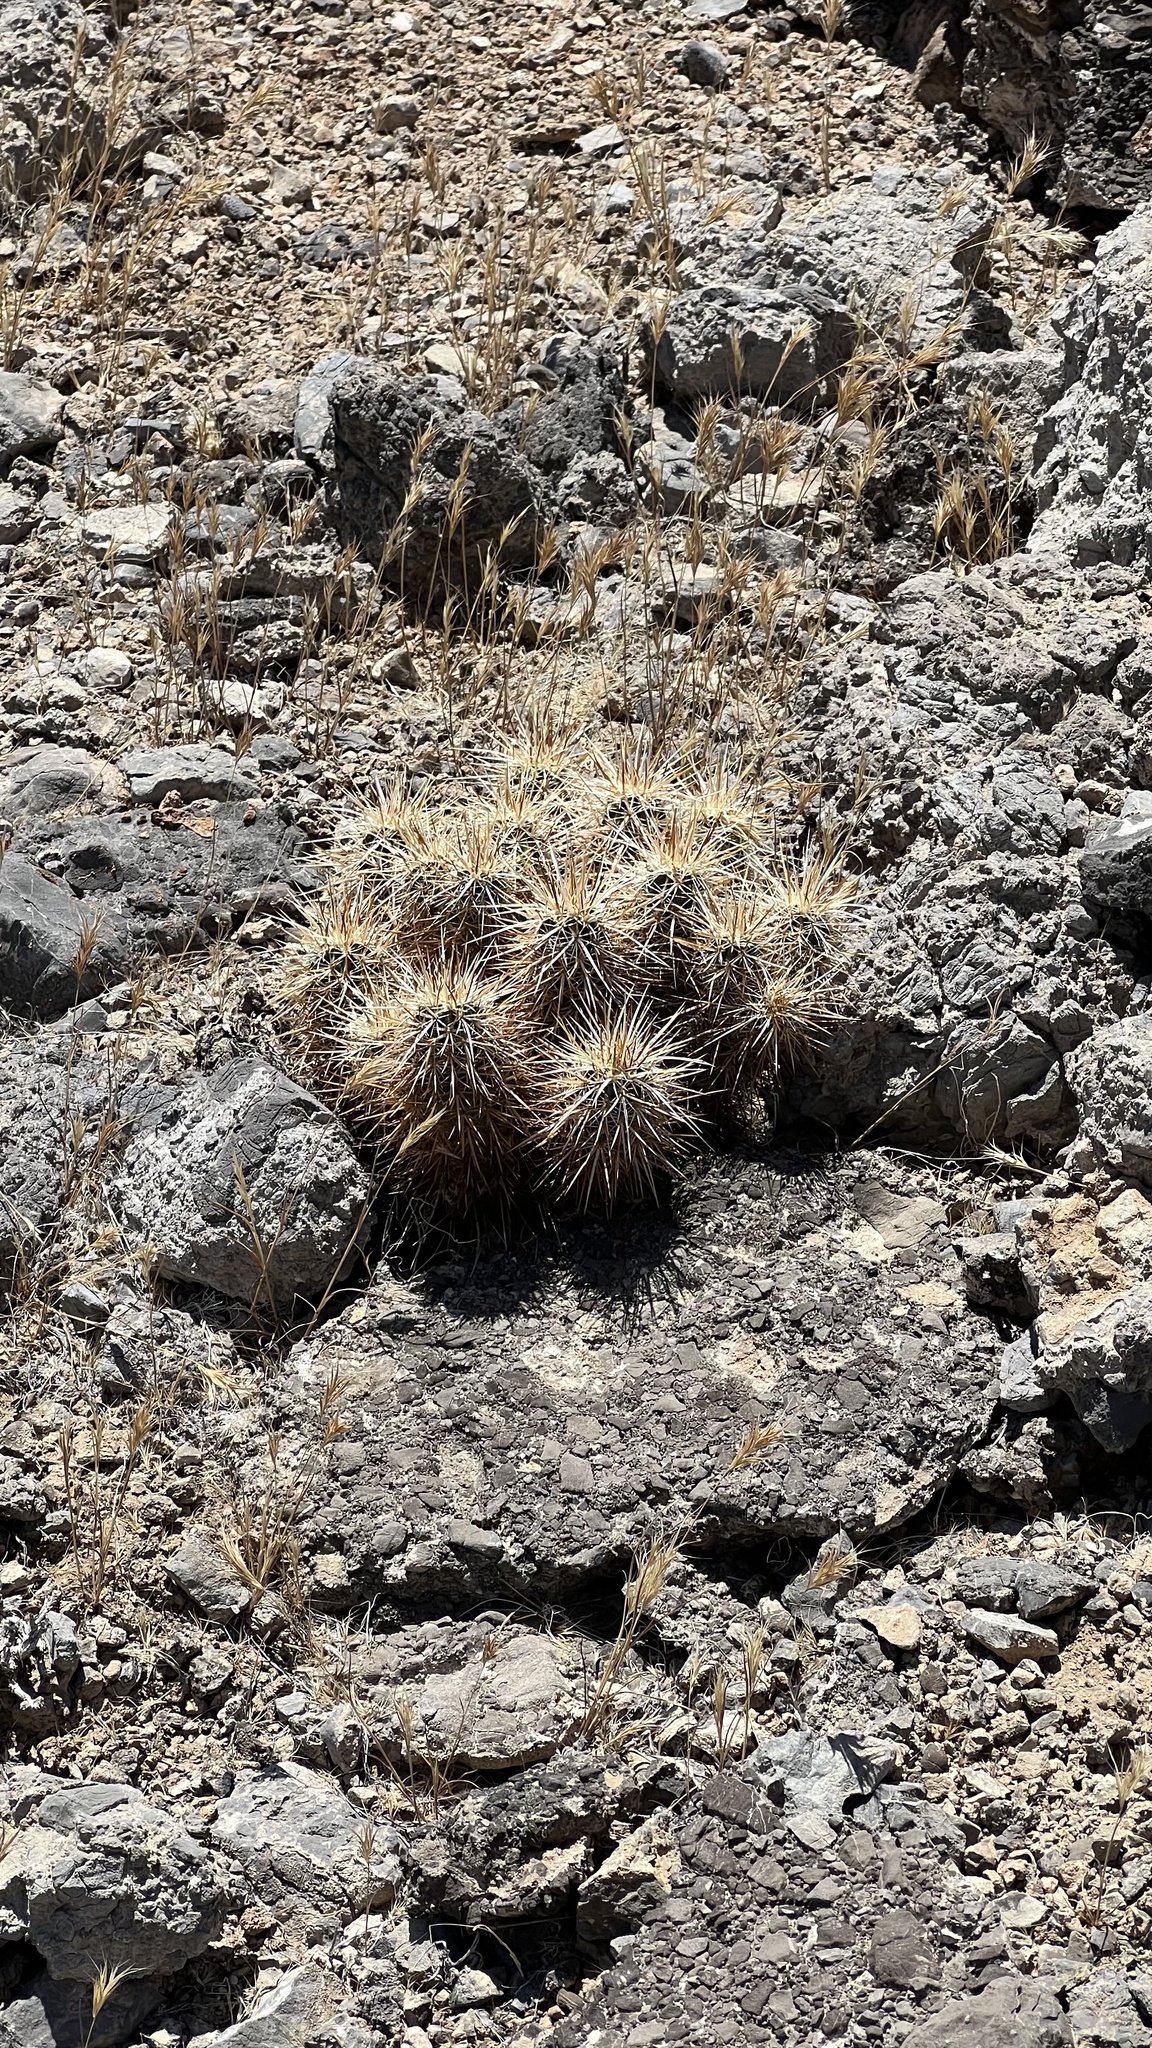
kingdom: Plantae
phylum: Tracheophyta
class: Magnoliopsida
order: Caryophyllales
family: Cactaceae
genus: Echinocereus
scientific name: Echinocereus engelmannii
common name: Engelmann's hedgehog cactus
